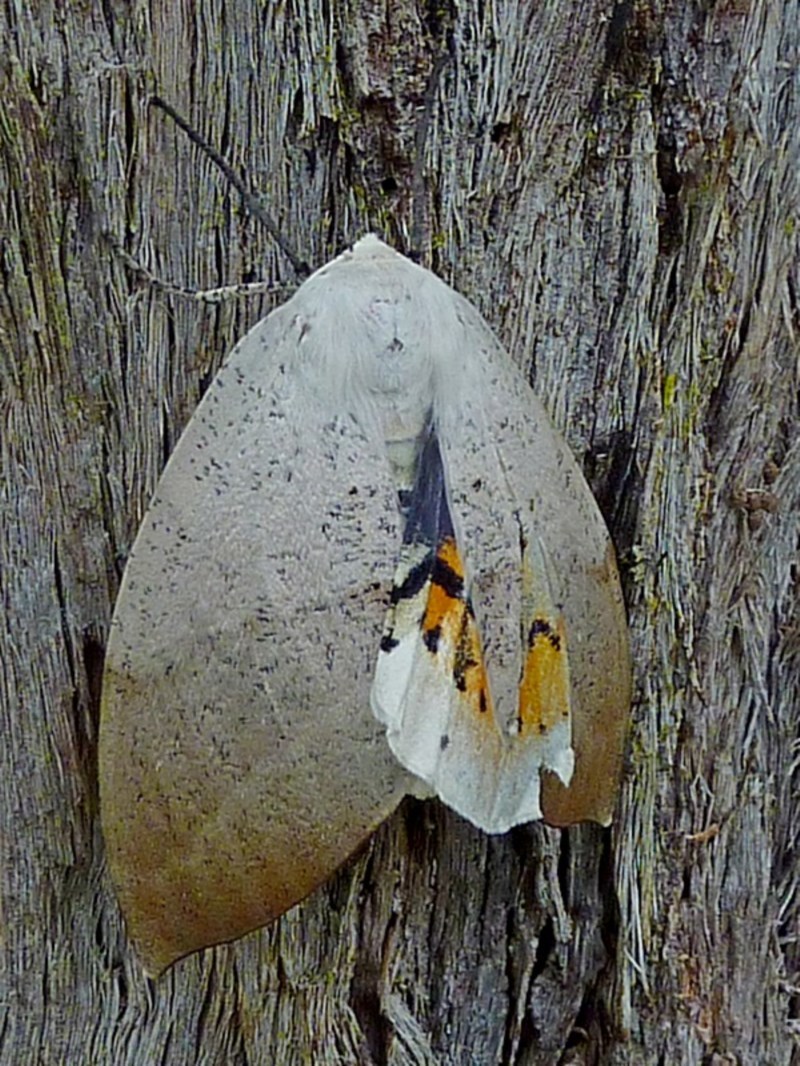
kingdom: Animalia
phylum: Arthropoda
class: Insecta
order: Lepidoptera
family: Geometridae
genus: Gastrophora
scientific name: Gastrophora henricaria
